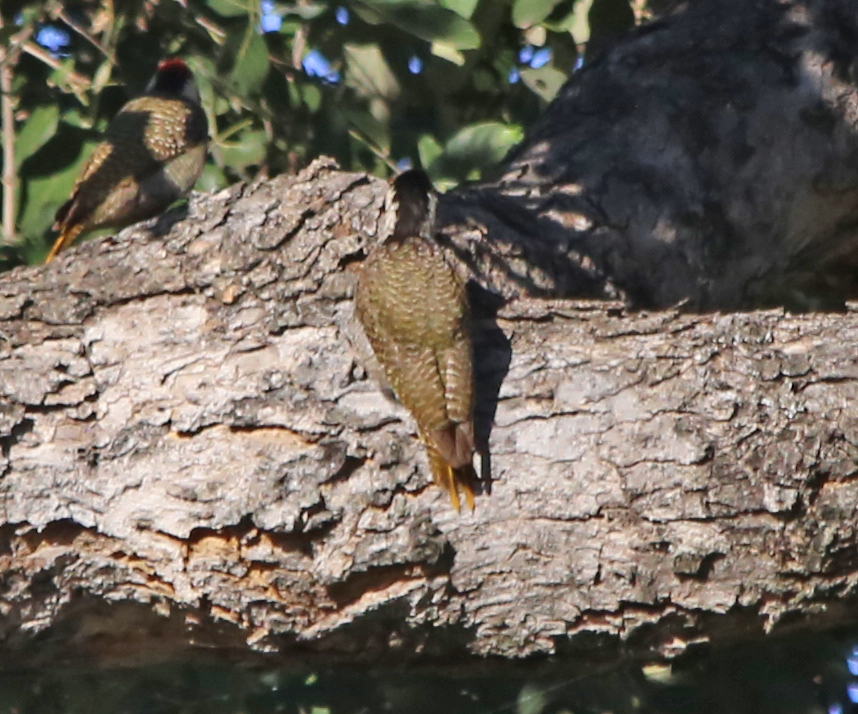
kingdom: Animalia
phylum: Chordata
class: Aves
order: Piciformes
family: Picidae
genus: Chloropicus
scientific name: Chloropicus namaquus
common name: Bearded woodpecker
